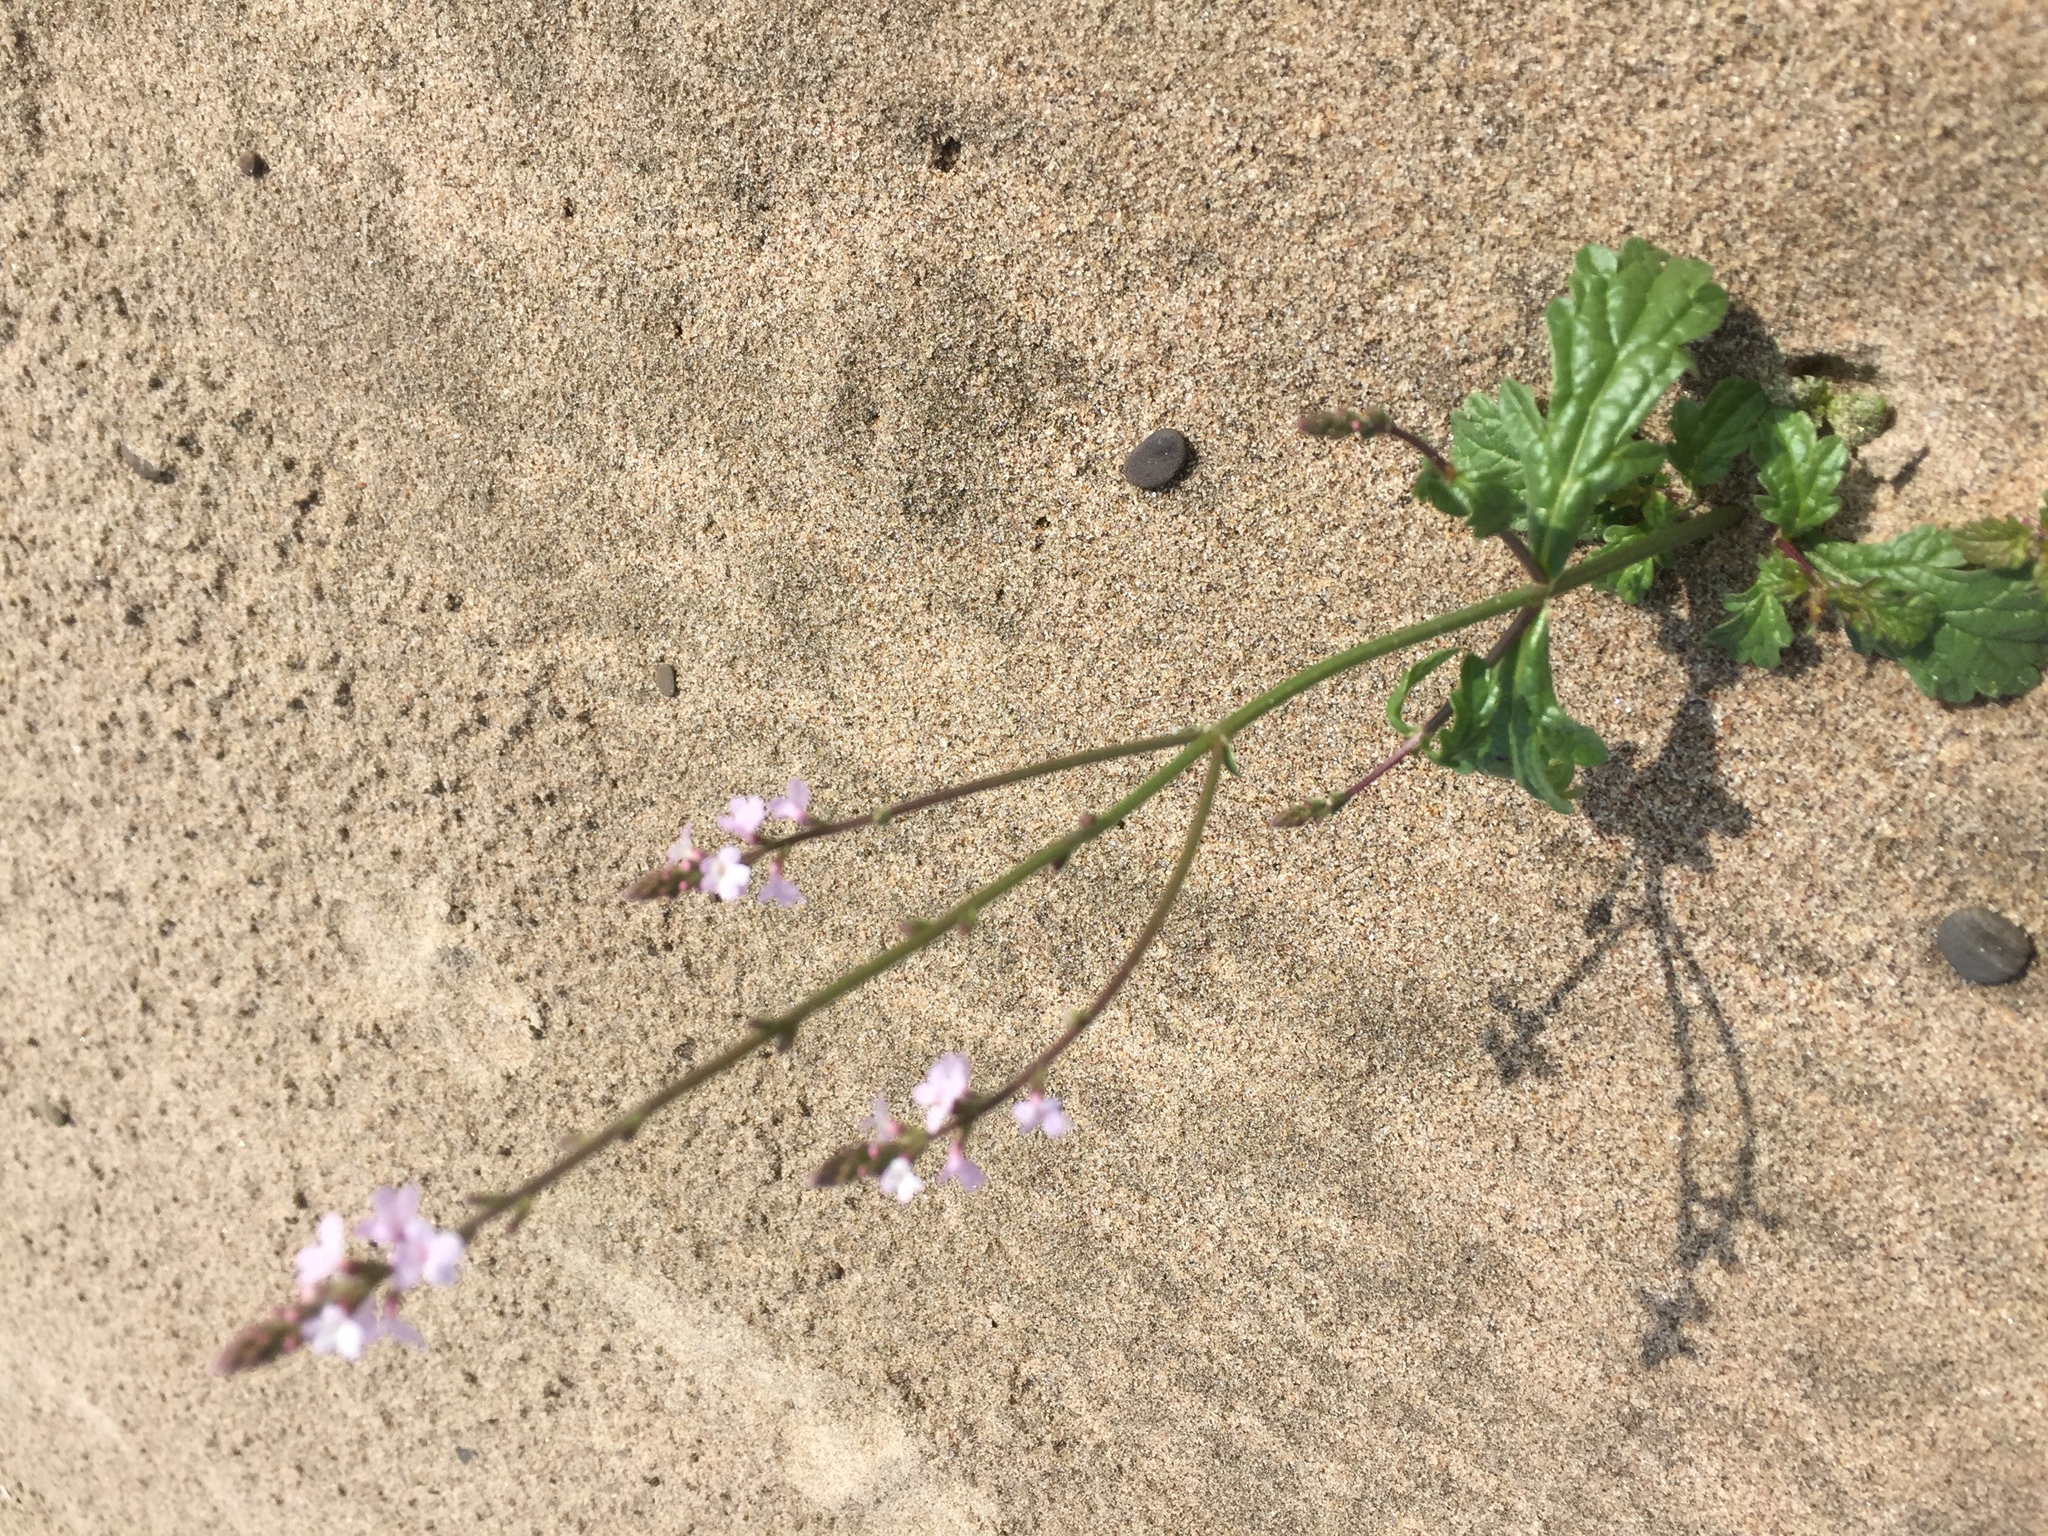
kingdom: Plantae
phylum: Tracheophyta
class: Magnoliopsida
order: Lamiales
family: Verbenaceae
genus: Verbena
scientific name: Verbena officinalis
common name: Vervain
